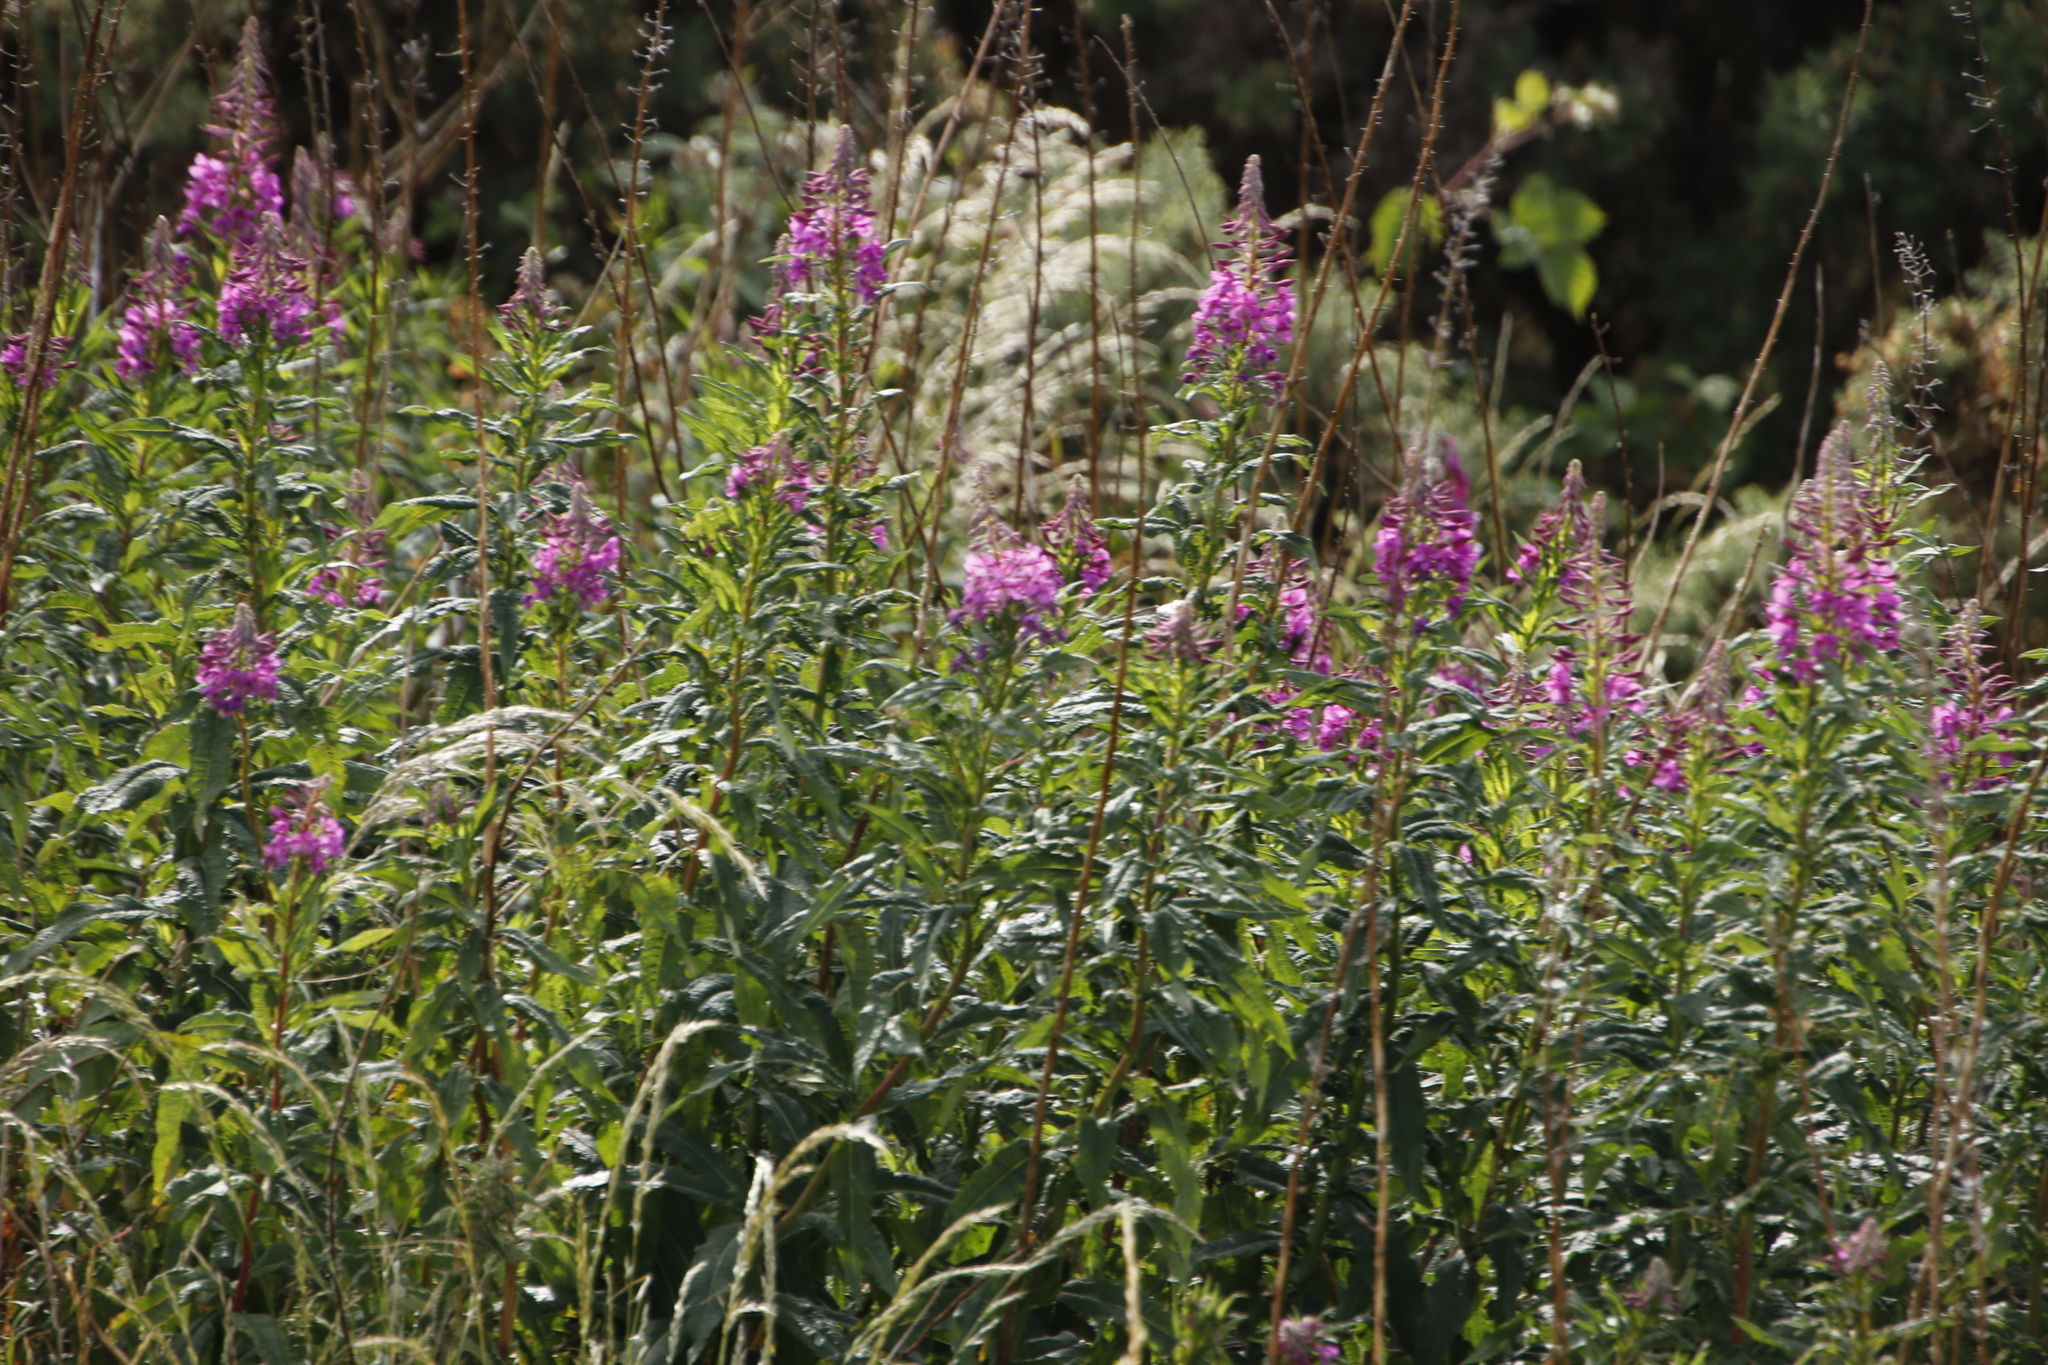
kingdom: Plantae
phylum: Tracheophyta
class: Magnoliopsida
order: Myrtales
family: Onagraceae
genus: Chamaenerion
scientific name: Chamaenerion angustifolium
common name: Fireweed
